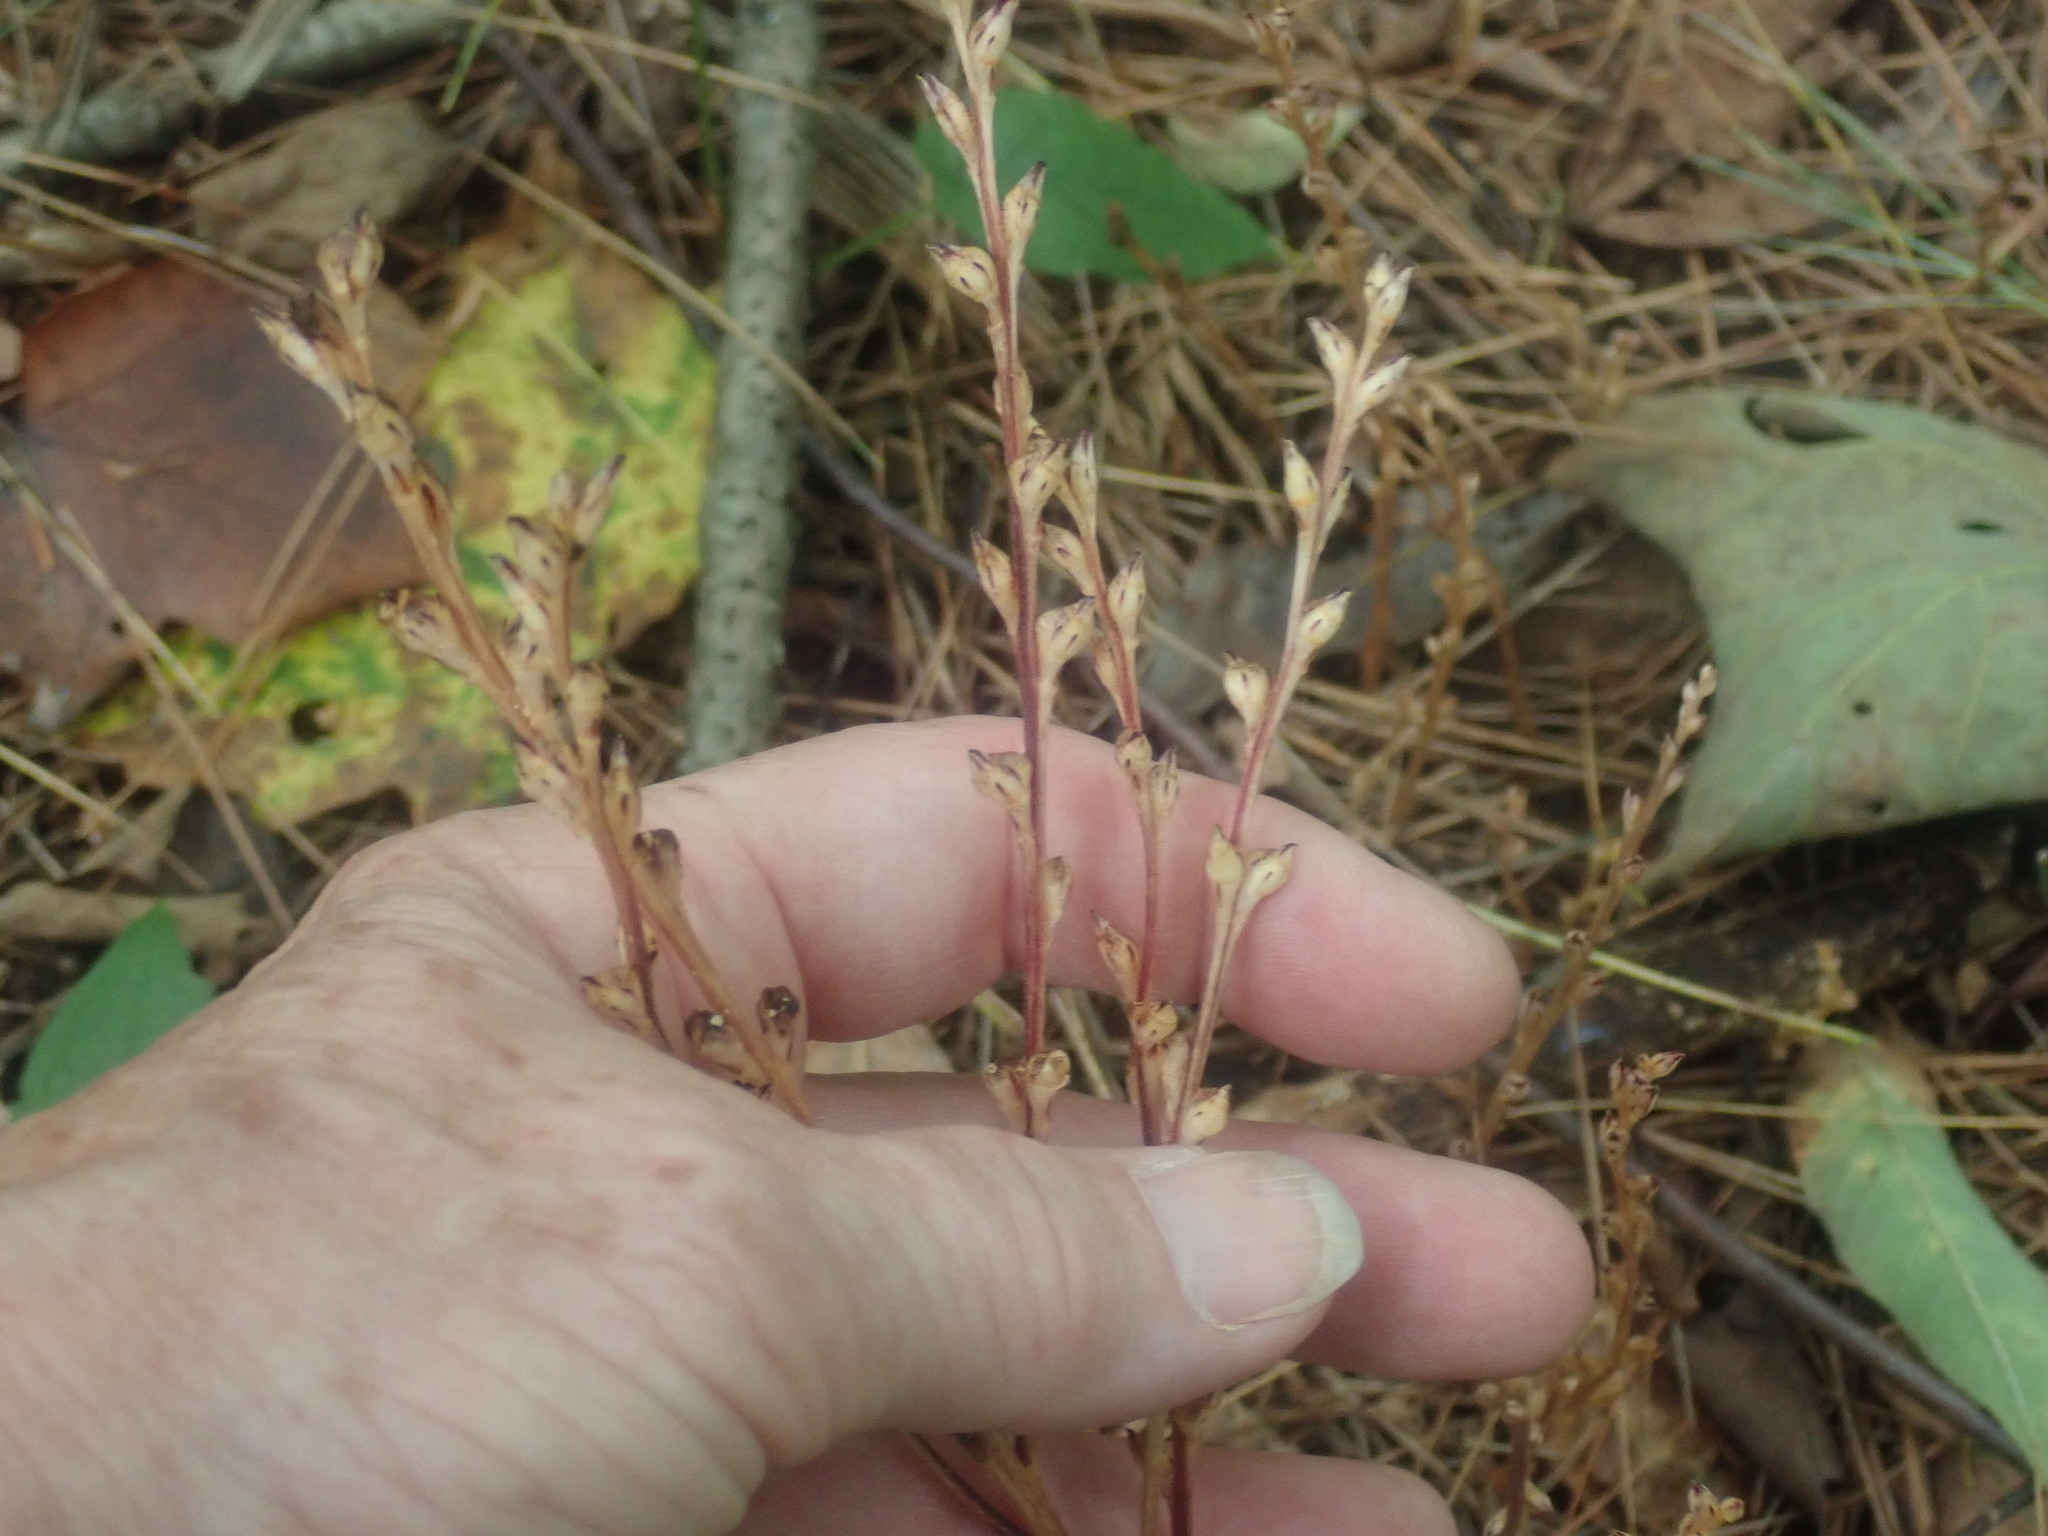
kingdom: Plantae
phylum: Tracheophyta
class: Magnoliopsida
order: Lamiales
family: Orobanchaceae
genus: Epifagus
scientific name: Epifagus virginiana
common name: Beechdrops
